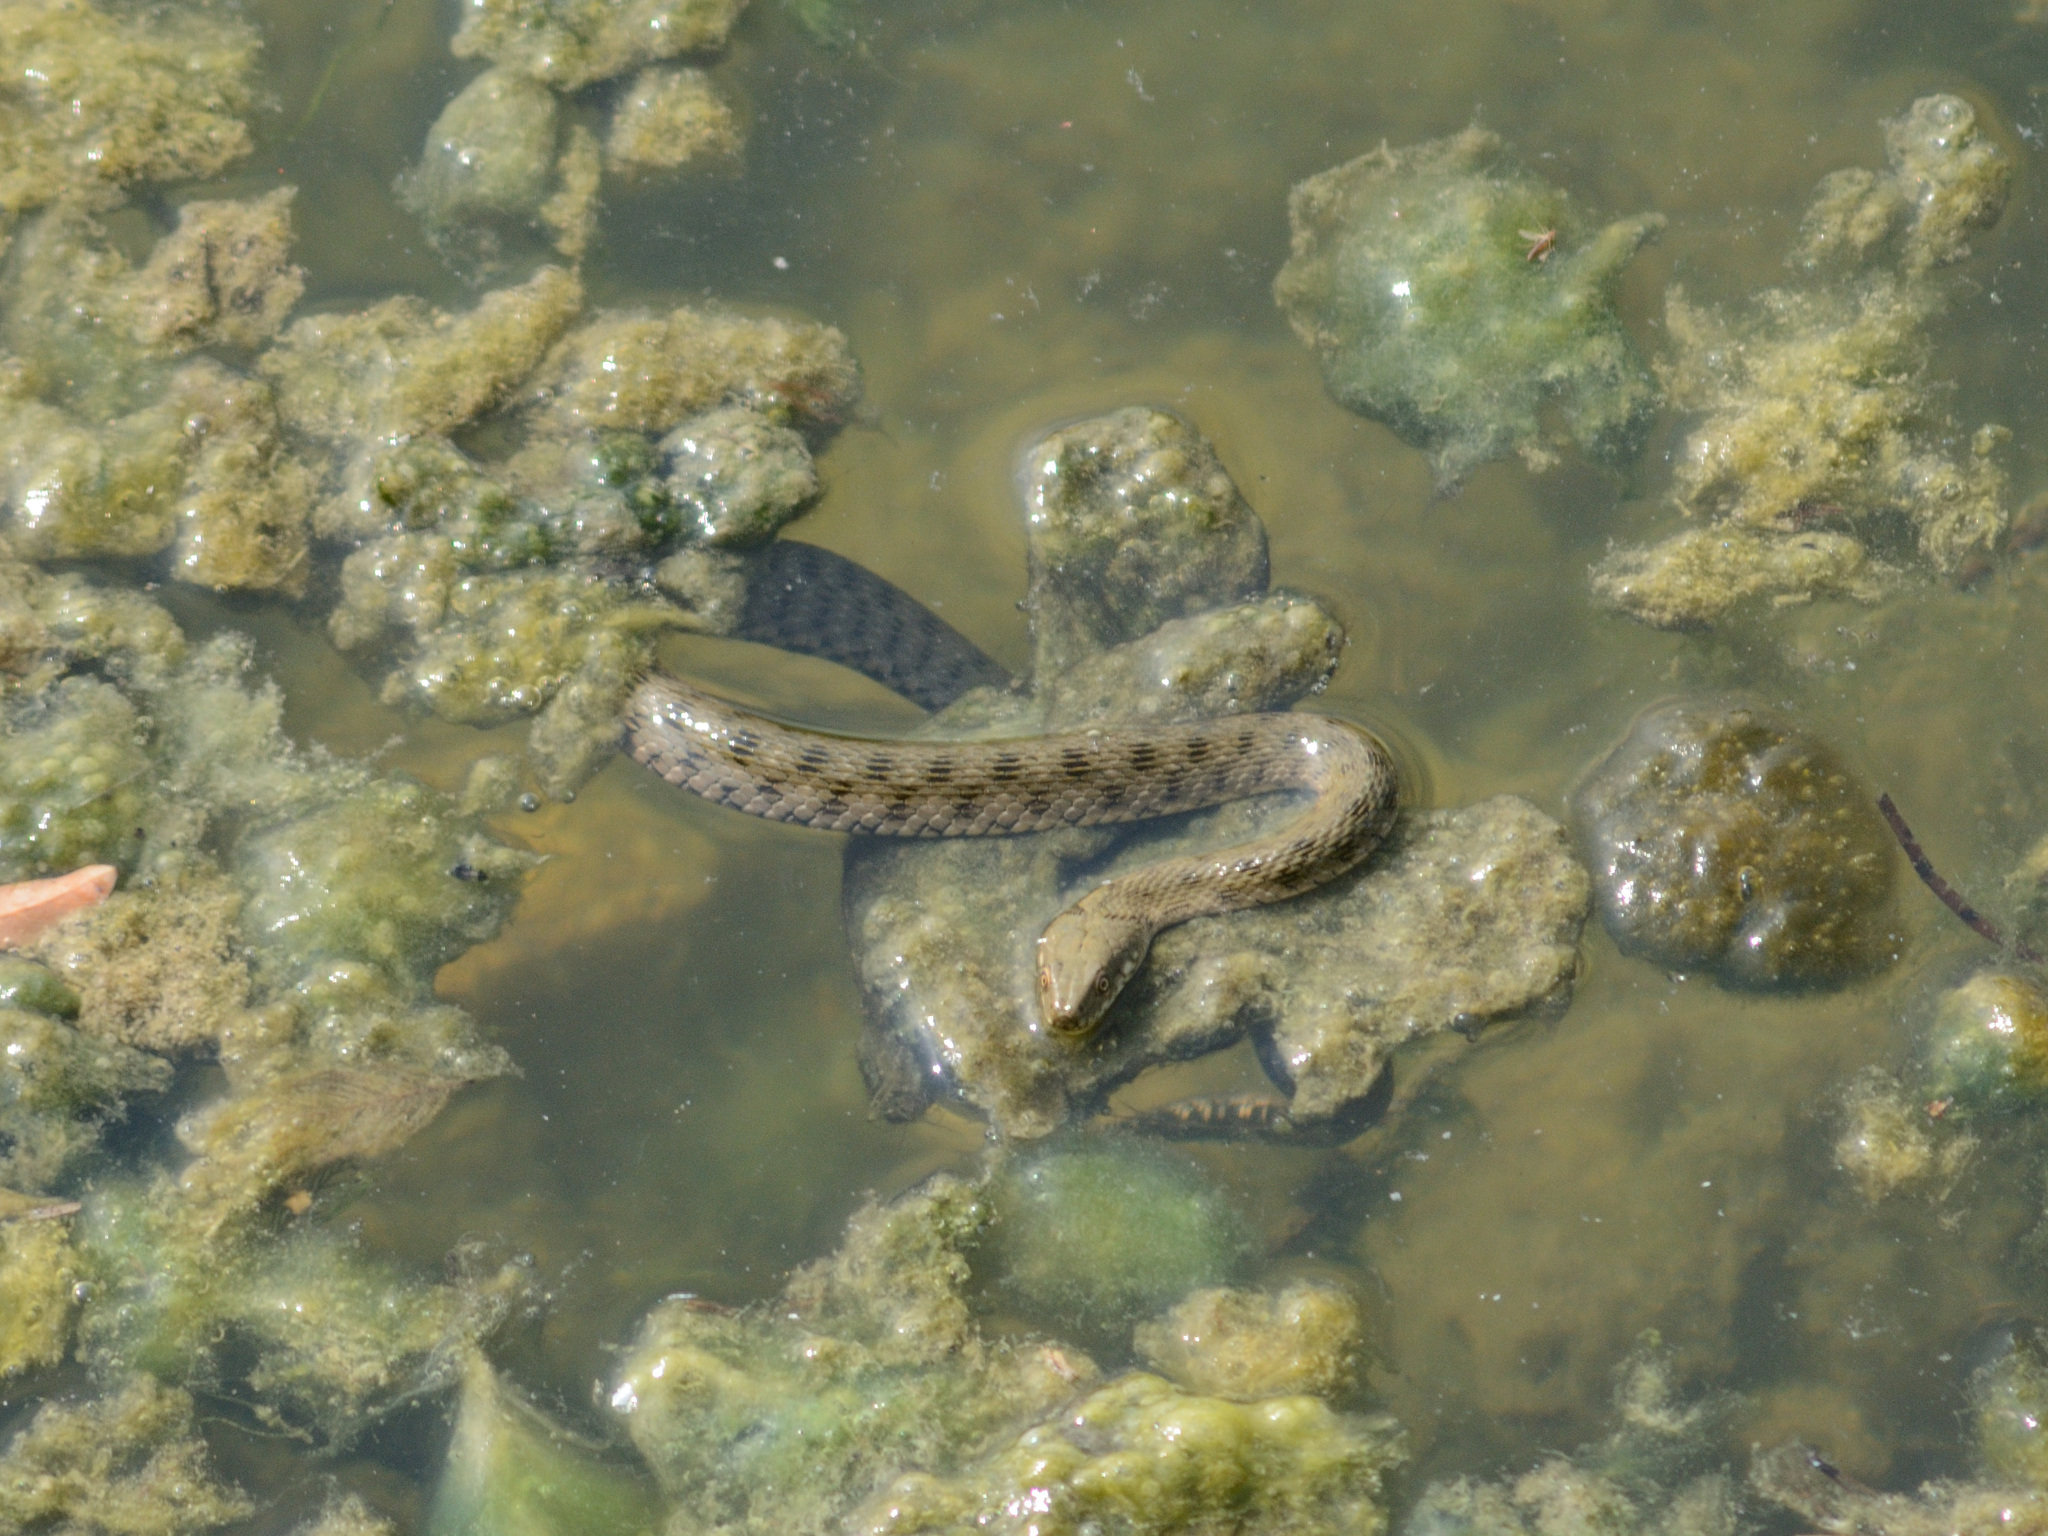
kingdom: Animalia
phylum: Chordata
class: Squamata
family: Colubridae
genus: Natrix
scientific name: Natrix tessellata
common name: Dice snake
